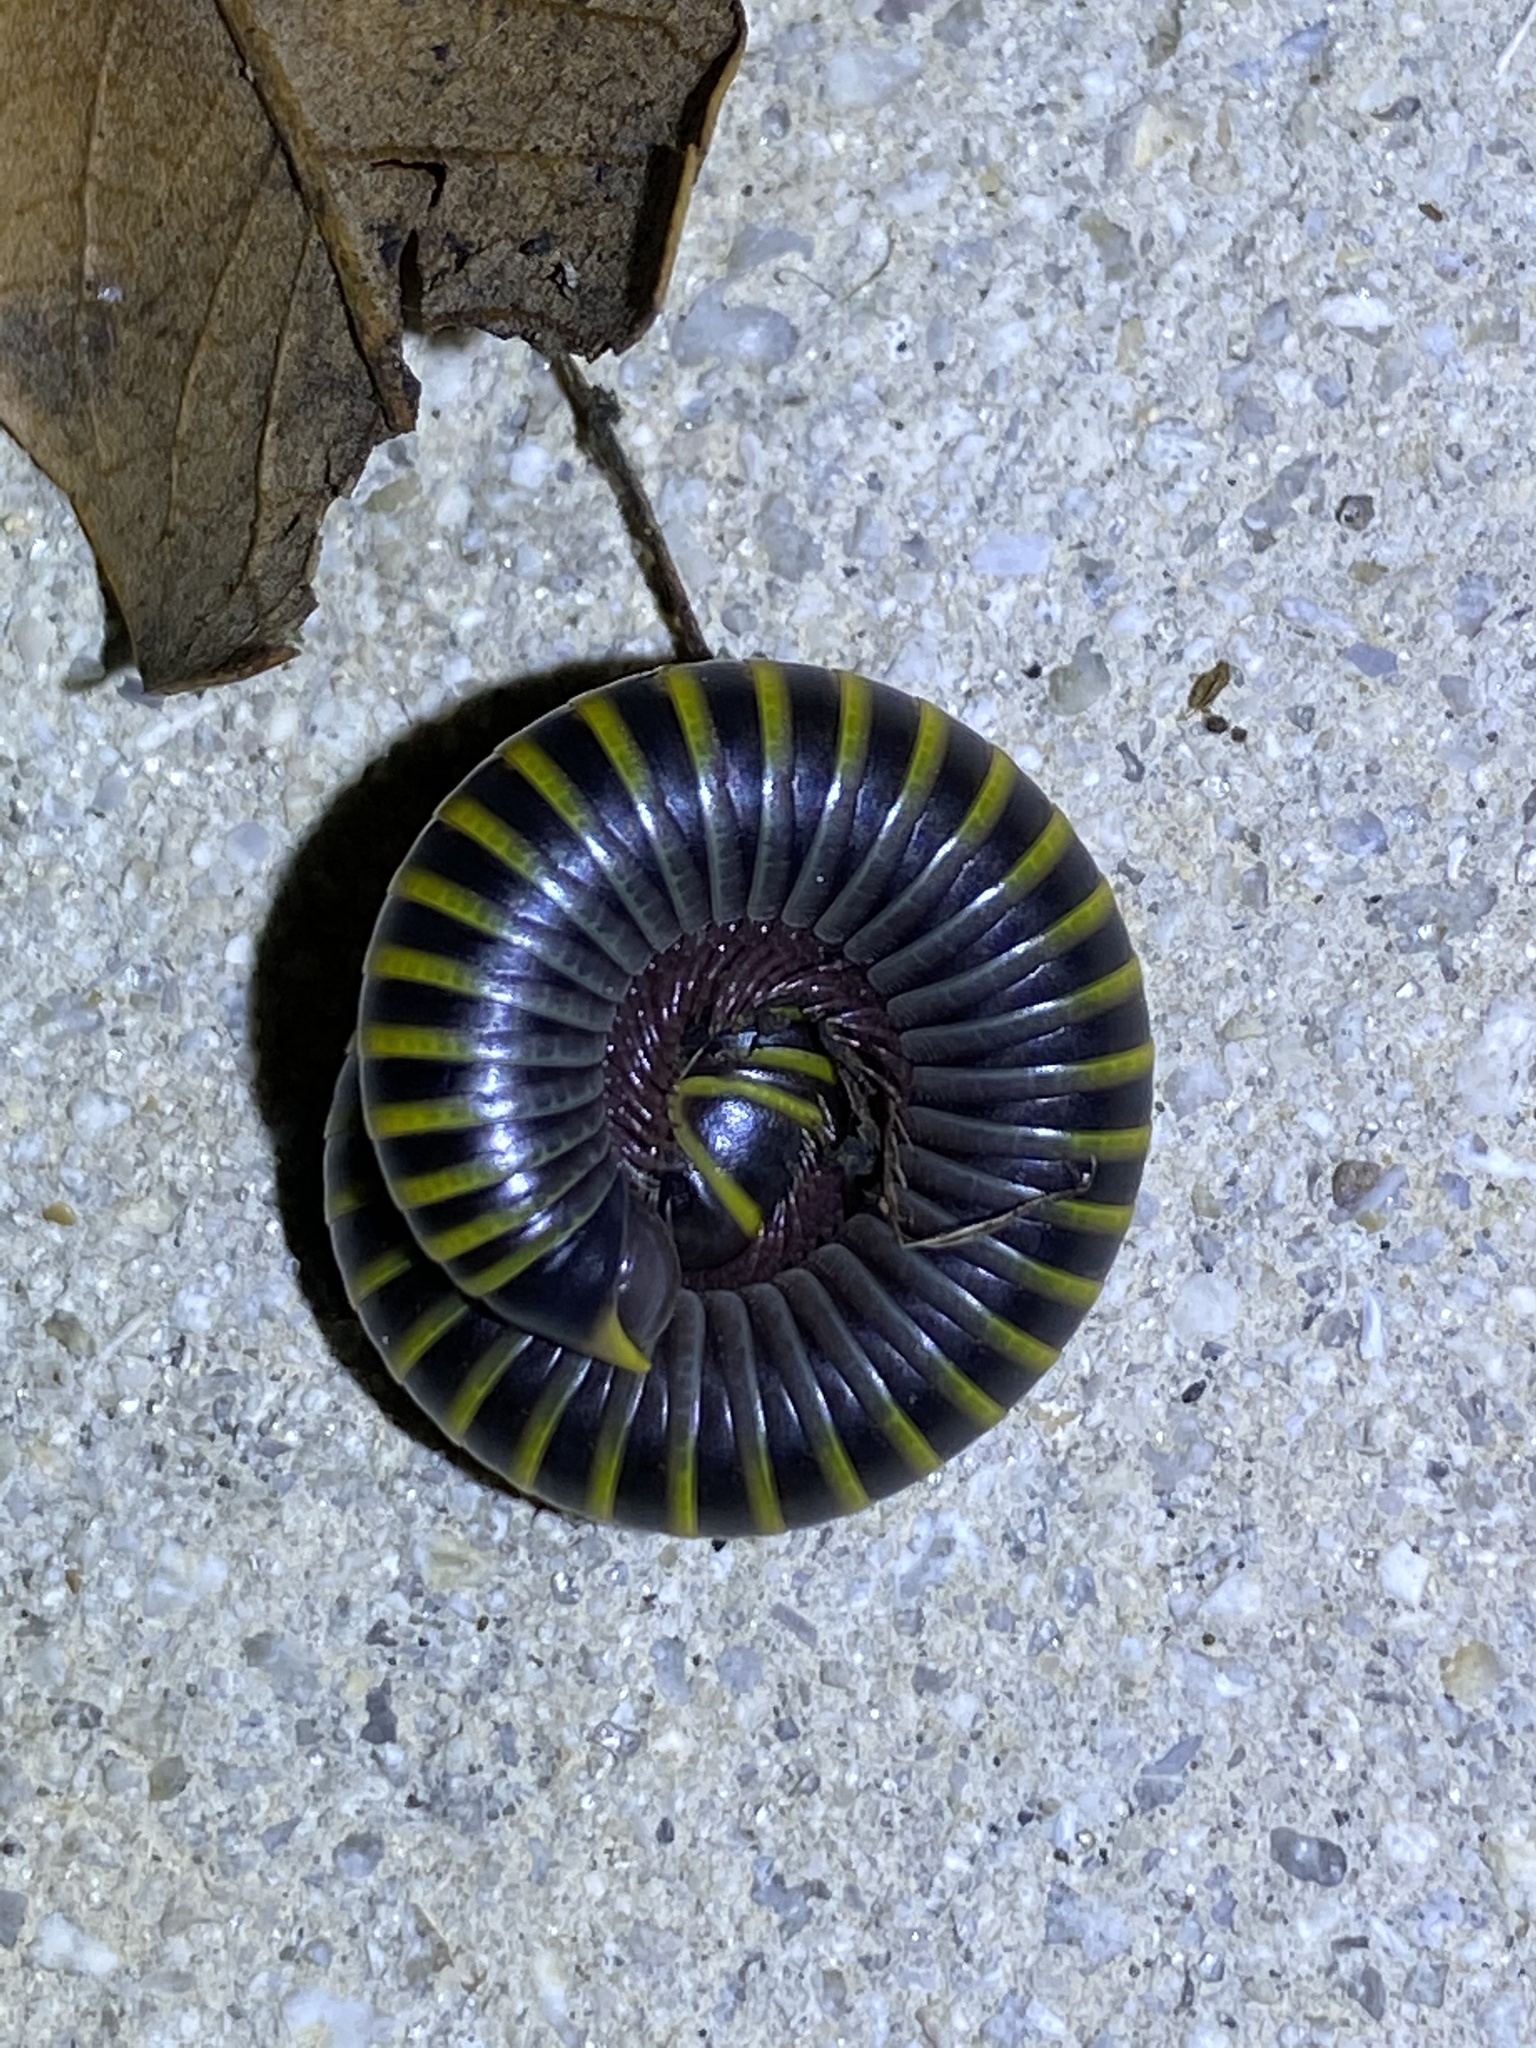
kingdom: Animalia
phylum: Arthropoda
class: Diplopoda
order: Spirobolida
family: Rhinocricidae
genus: Anadenobolus
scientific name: Anadenobolus monilicornis
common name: Caribbean millipede
